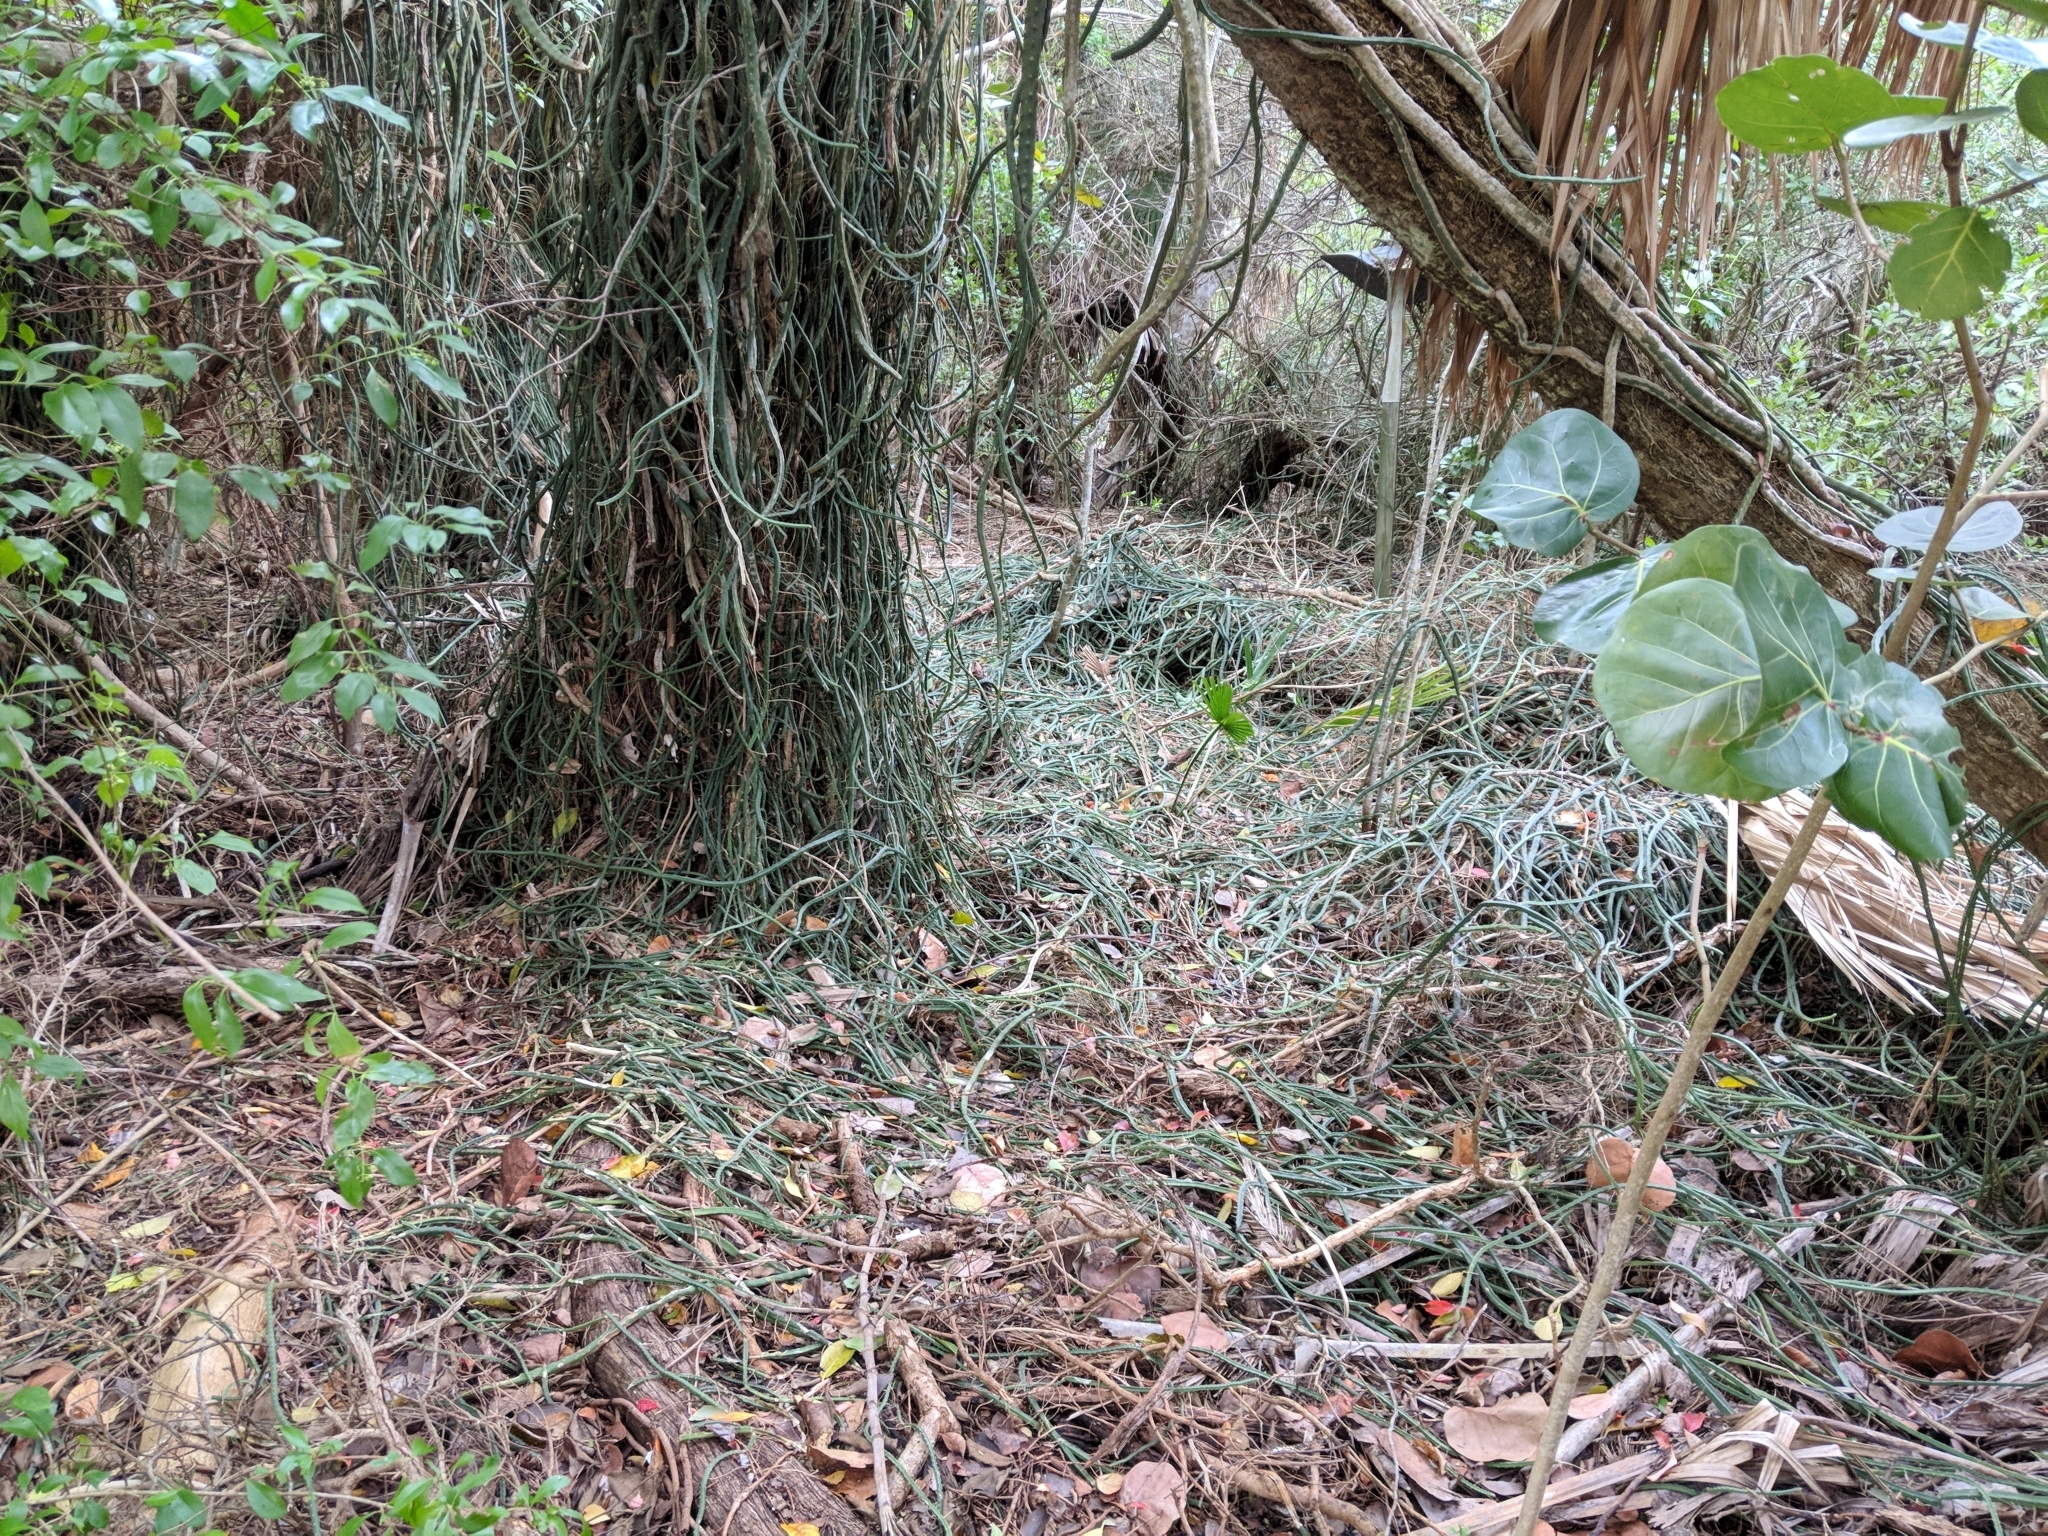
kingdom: Plantae
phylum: Tracheophyta
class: Magnoliopsida
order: Caryophyllales
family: Cactaceae
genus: Selenicereus
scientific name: Selenicereus pteranthus
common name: Princess of the night
